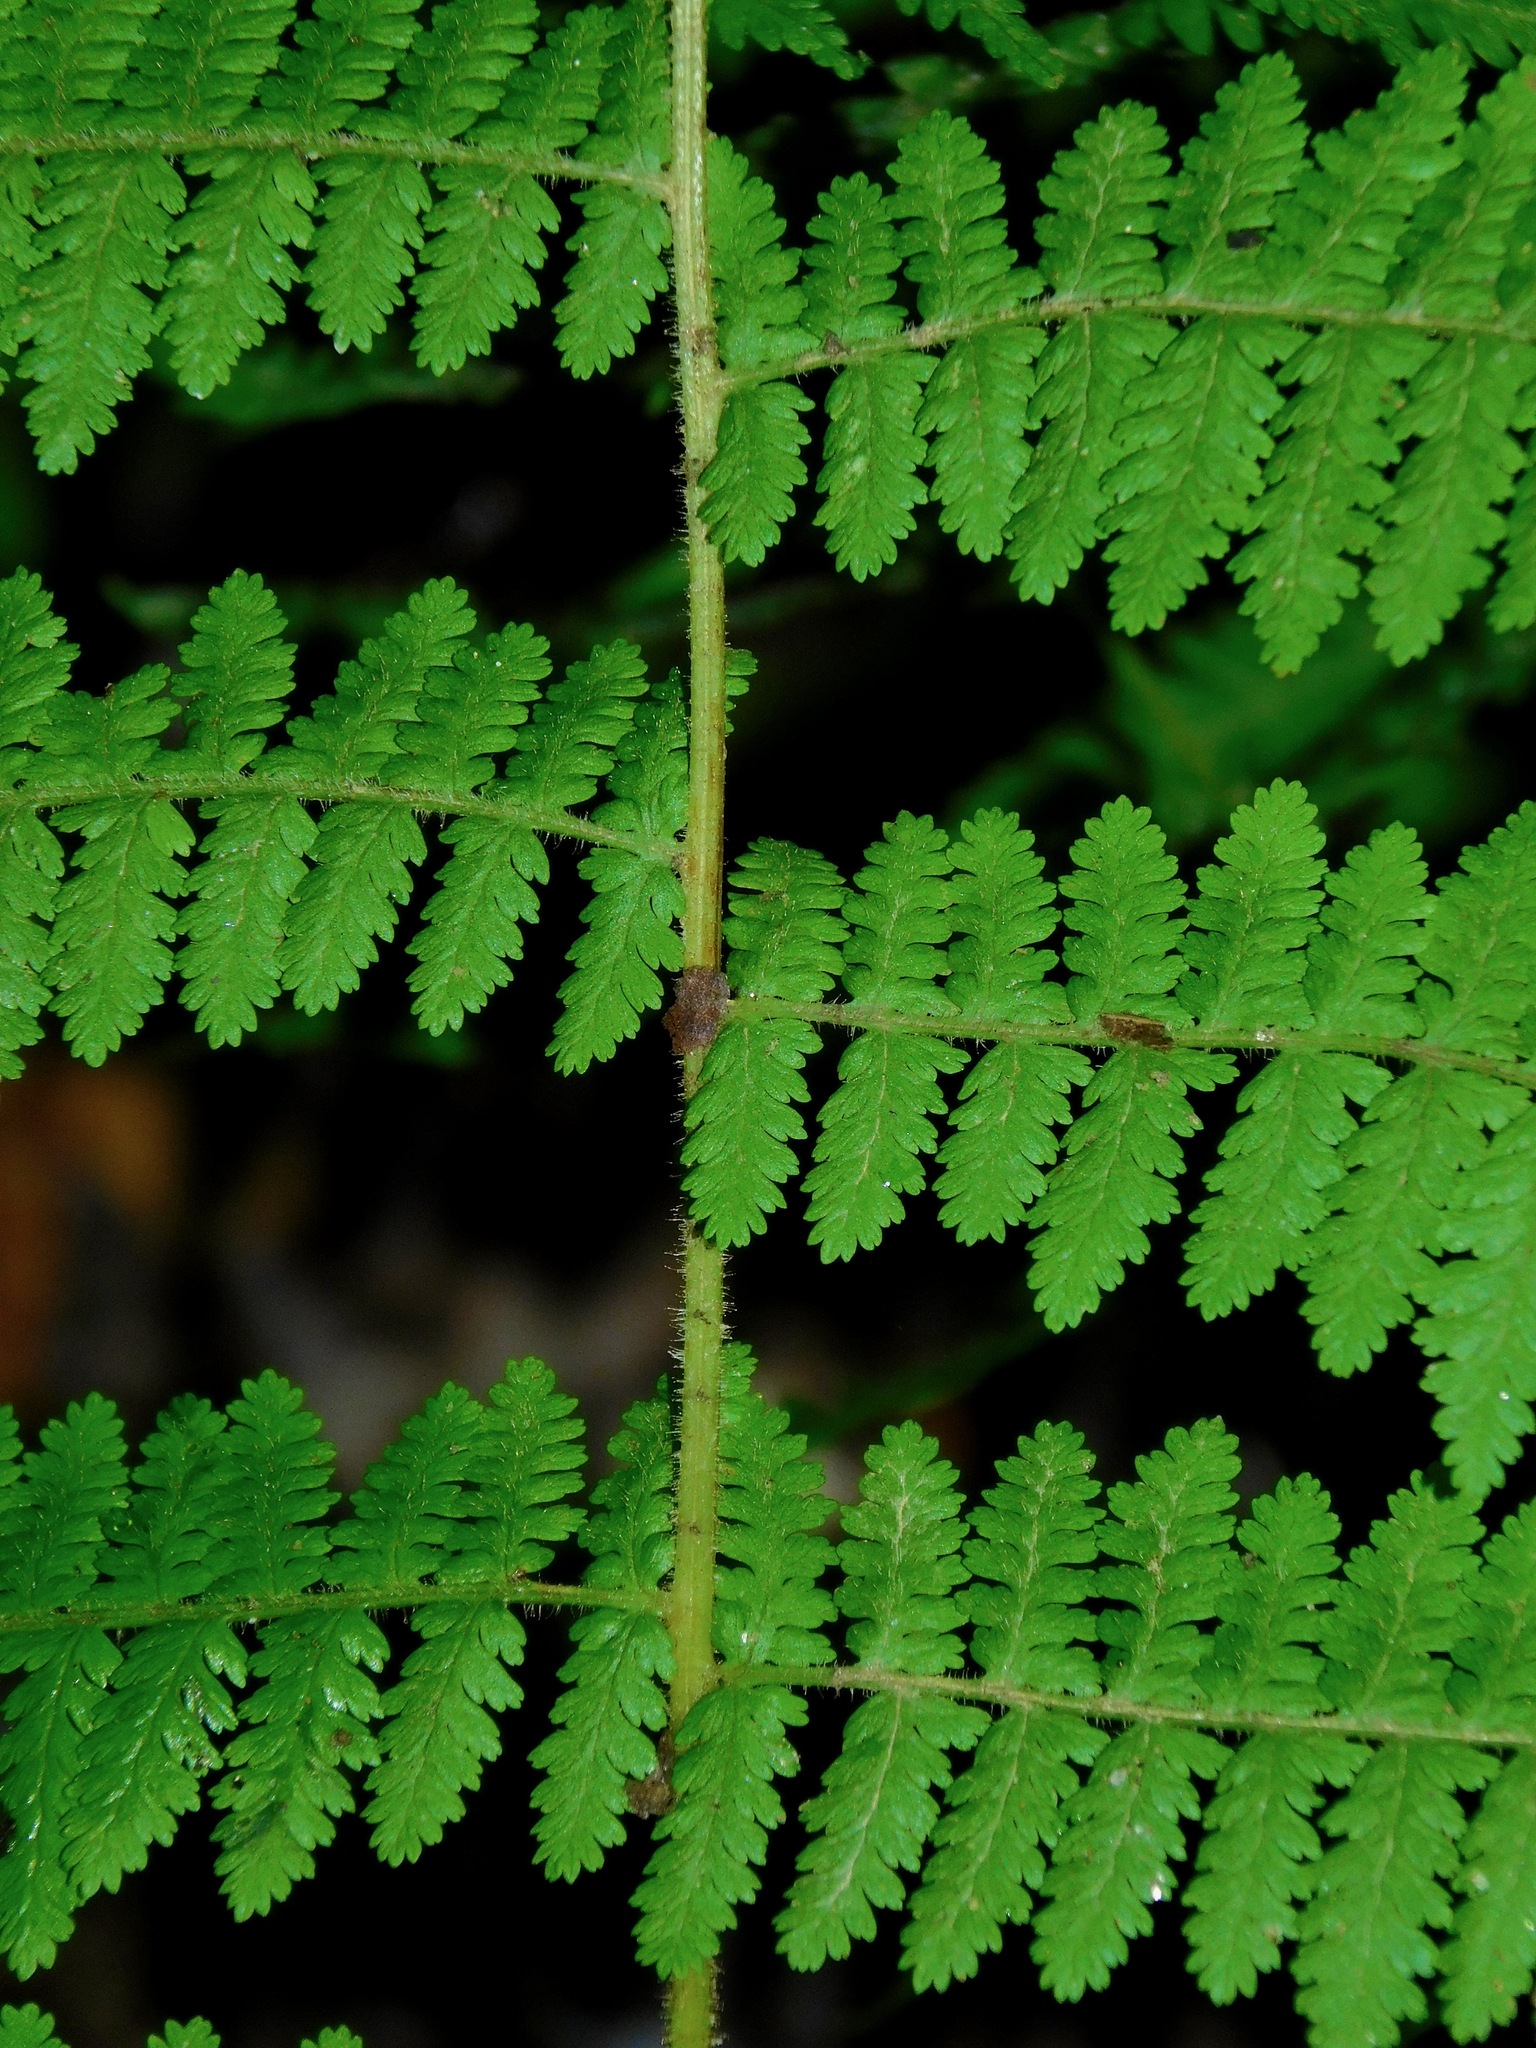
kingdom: Plantae
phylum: Tracheophyta
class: Polypodiopsida
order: Polypodiales
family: Dennstaedtiaceae
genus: Sitobolium
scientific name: Sitobolium punctilobum
